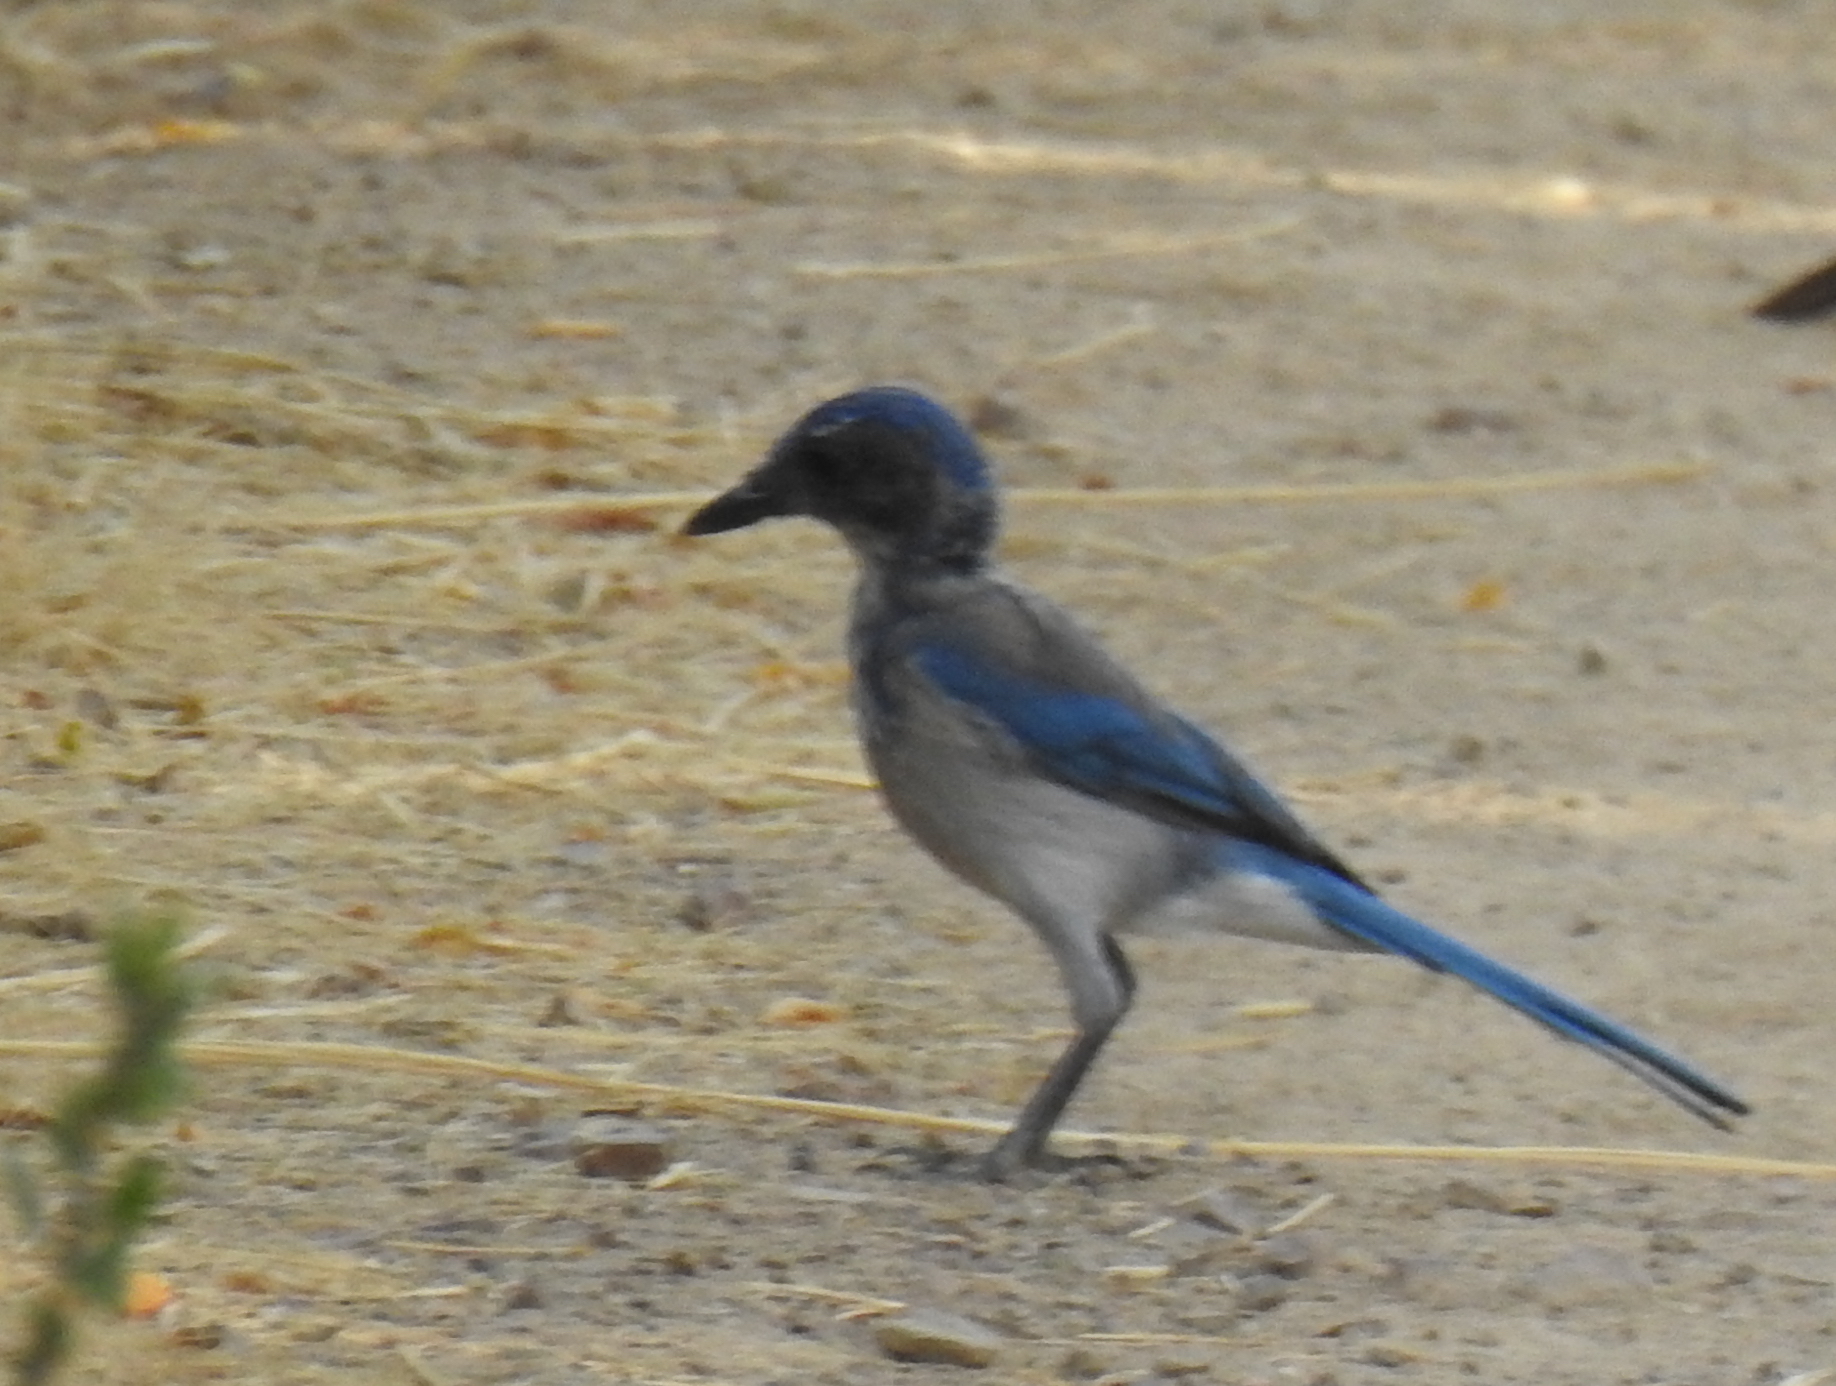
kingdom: Animalia
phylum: Chordata
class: Aves
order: Passeriformes
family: Corvidae
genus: Aphelocoma
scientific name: Aphelocoma californica
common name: California scrub-jay
